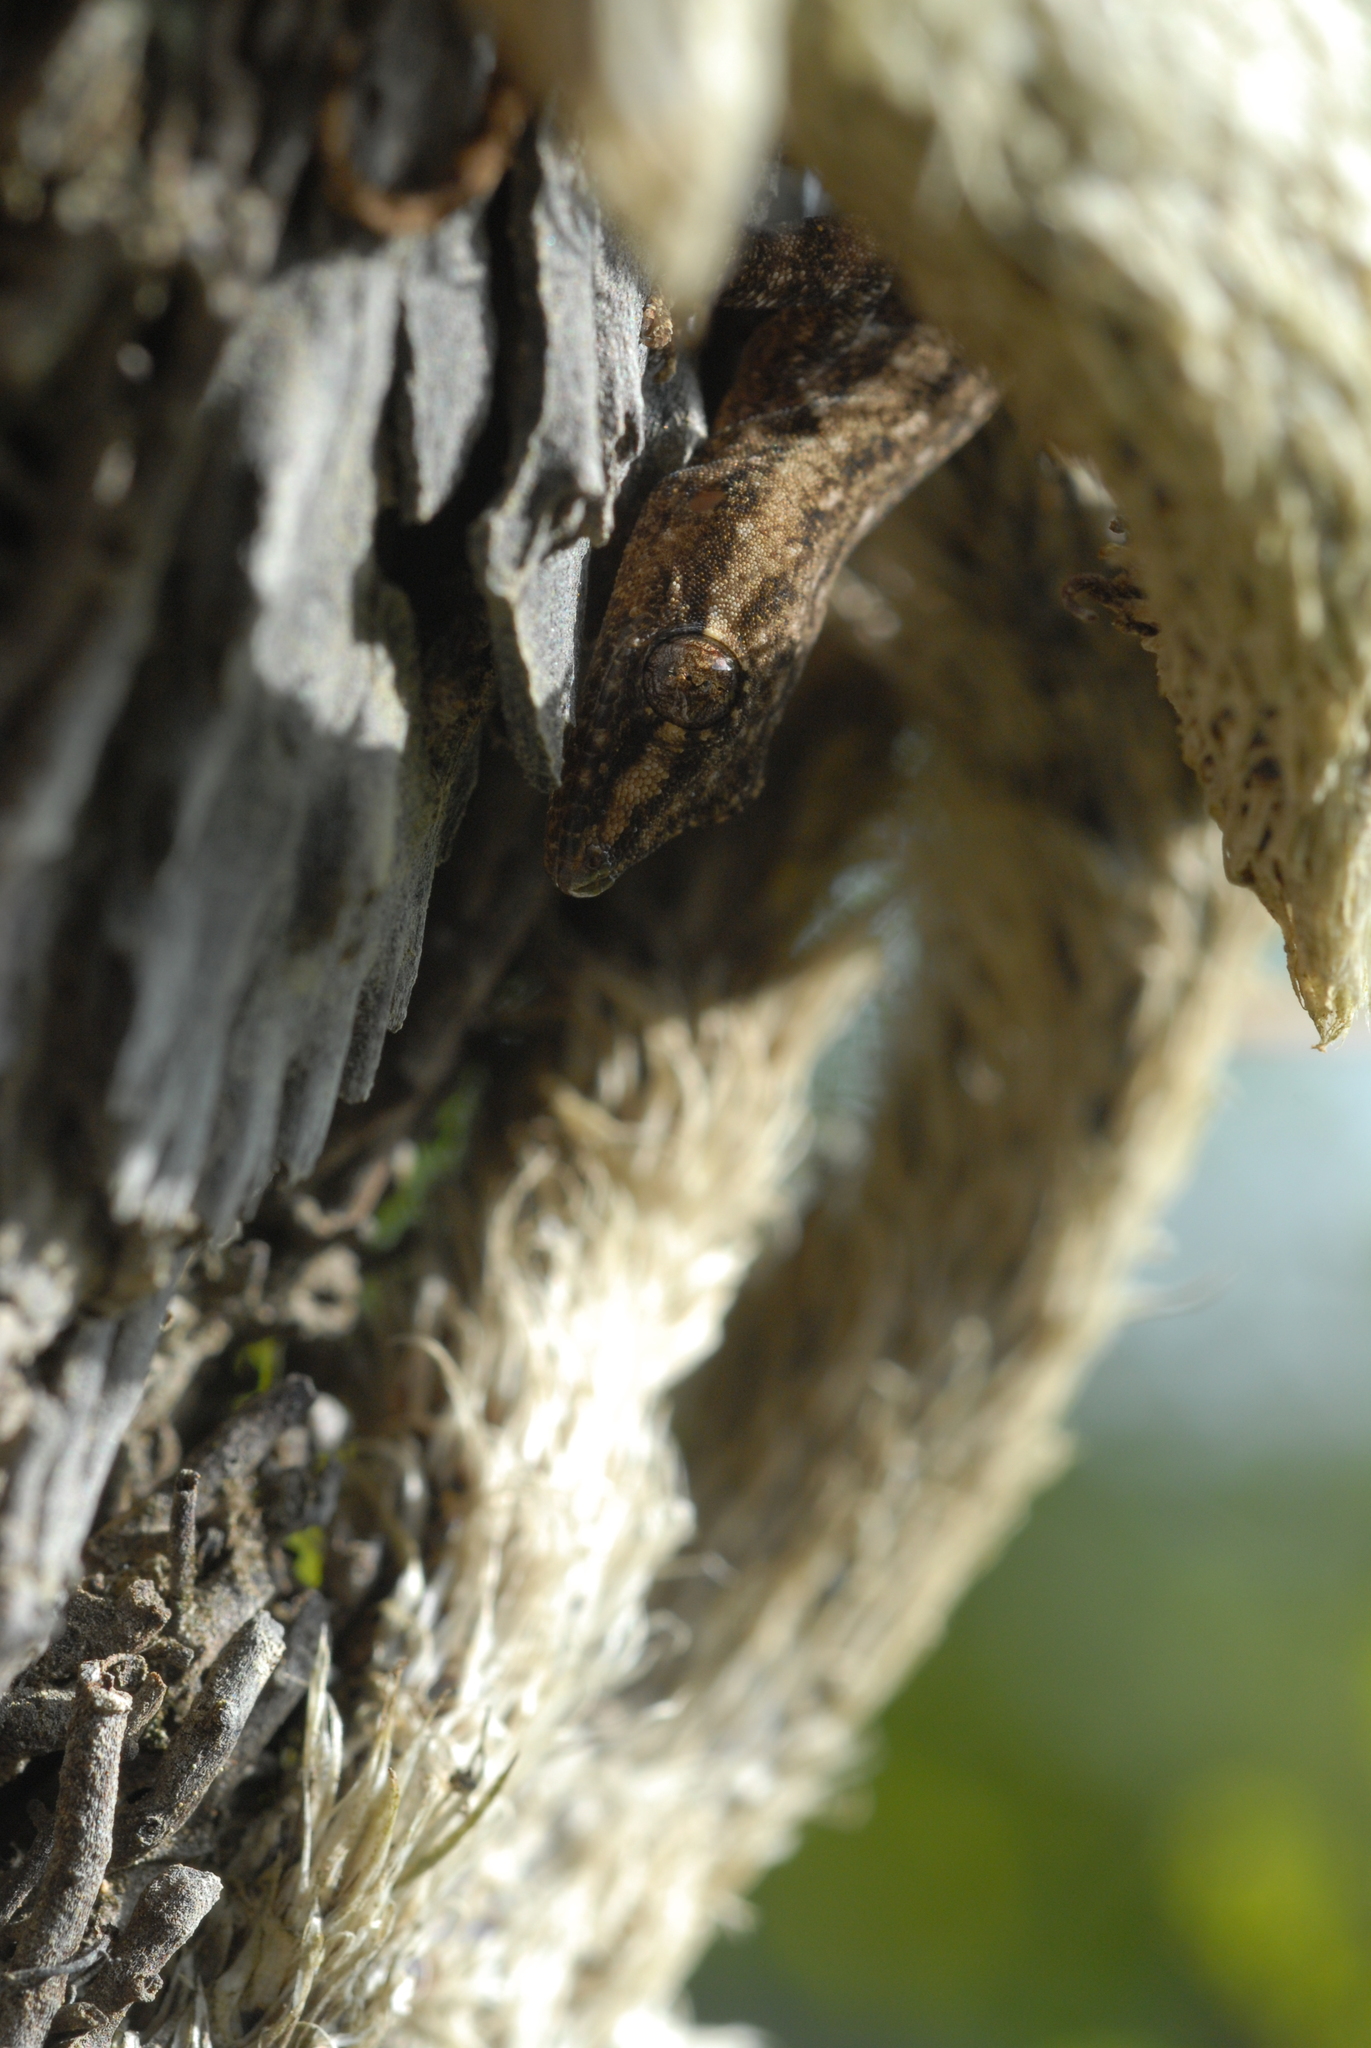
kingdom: Animalia
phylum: Chordata
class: Squamata
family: Gekkonidae
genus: Hemidactylus
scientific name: Hemidactylus frenatus
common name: Common house gecko
